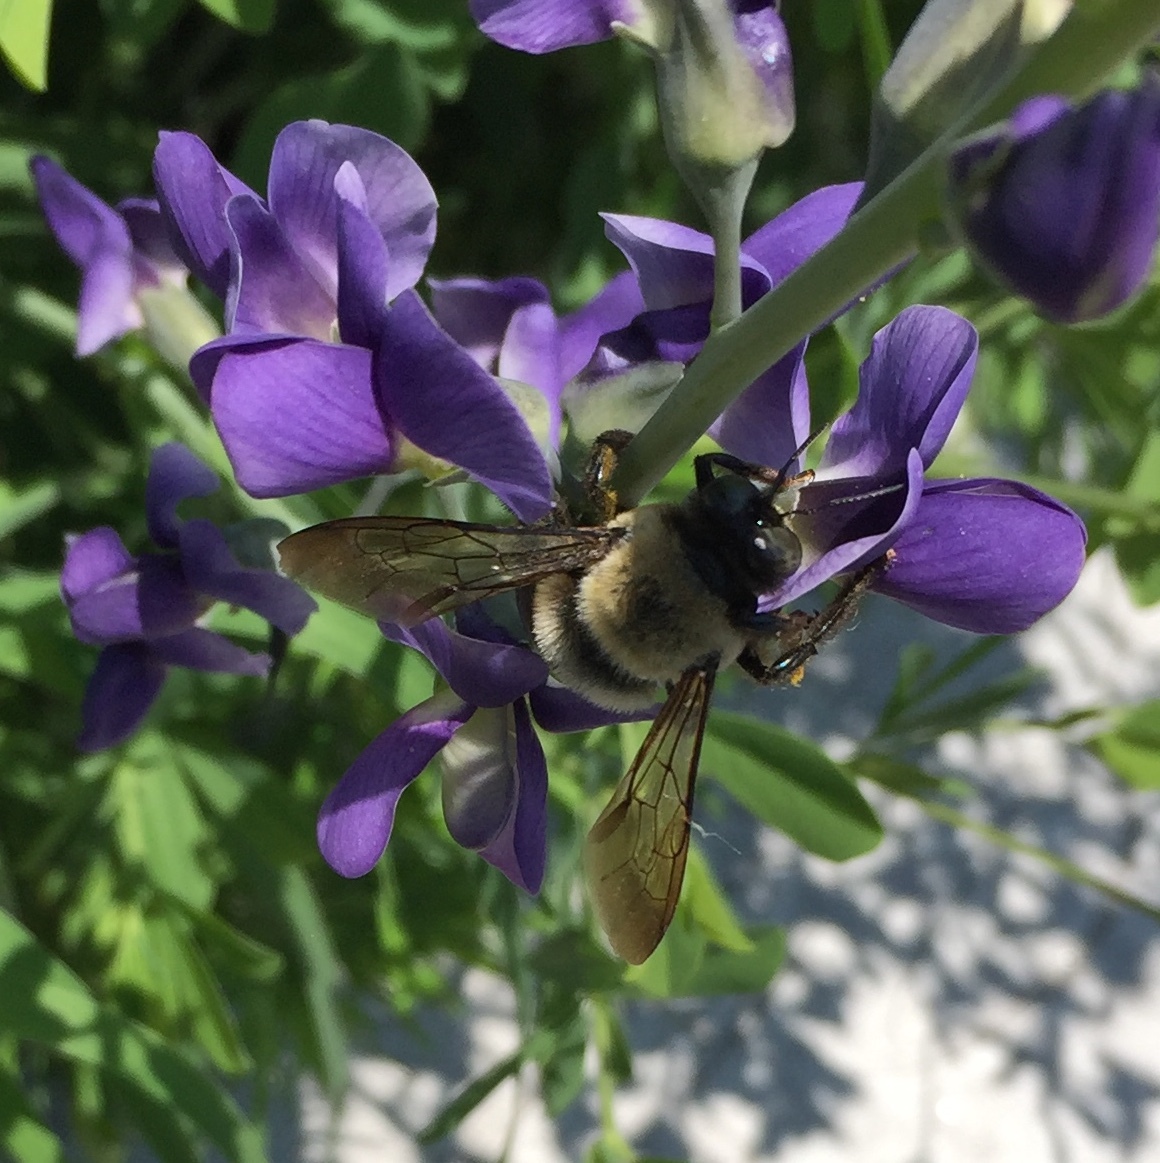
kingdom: Animalia
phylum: Arthropoda
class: Insecta
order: Hymenoptera
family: Apidae
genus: Xylocopa
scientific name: Xylocopa virginica
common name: Carpenter bee
